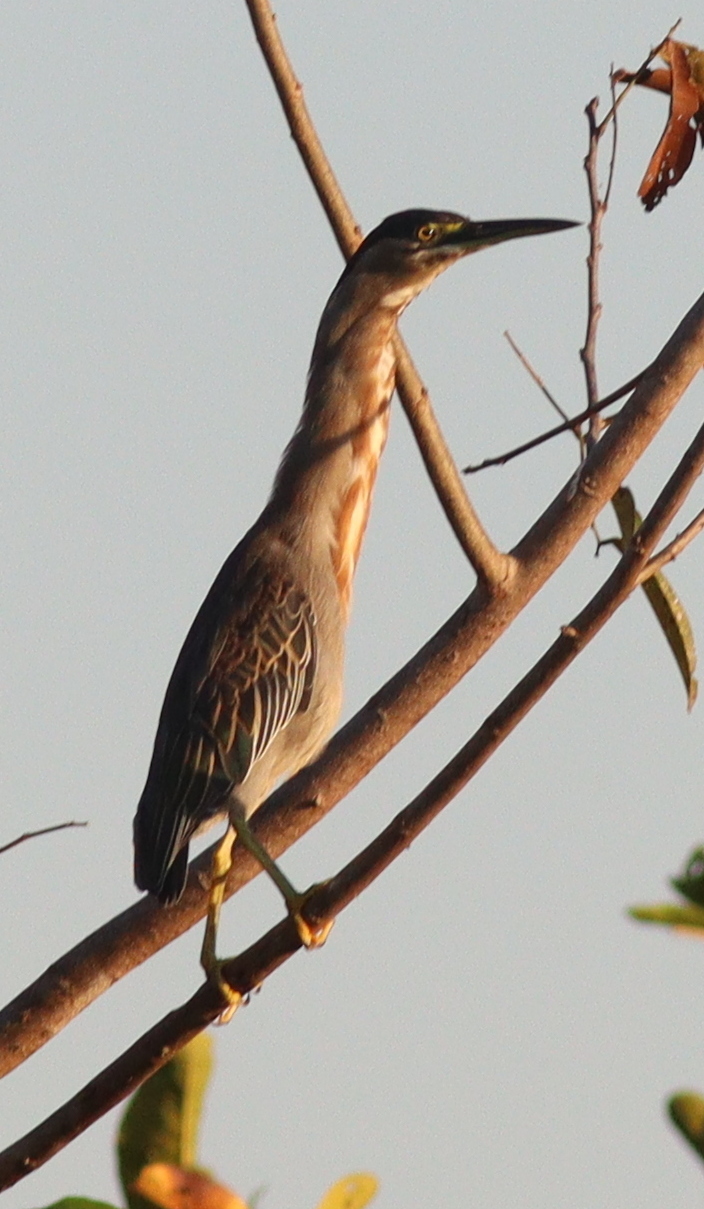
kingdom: Animalia
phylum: Chordata
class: Aves
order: Pelecaniformes
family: Ardeidae
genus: Butorides
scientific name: Butorides striata
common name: Striated heron
